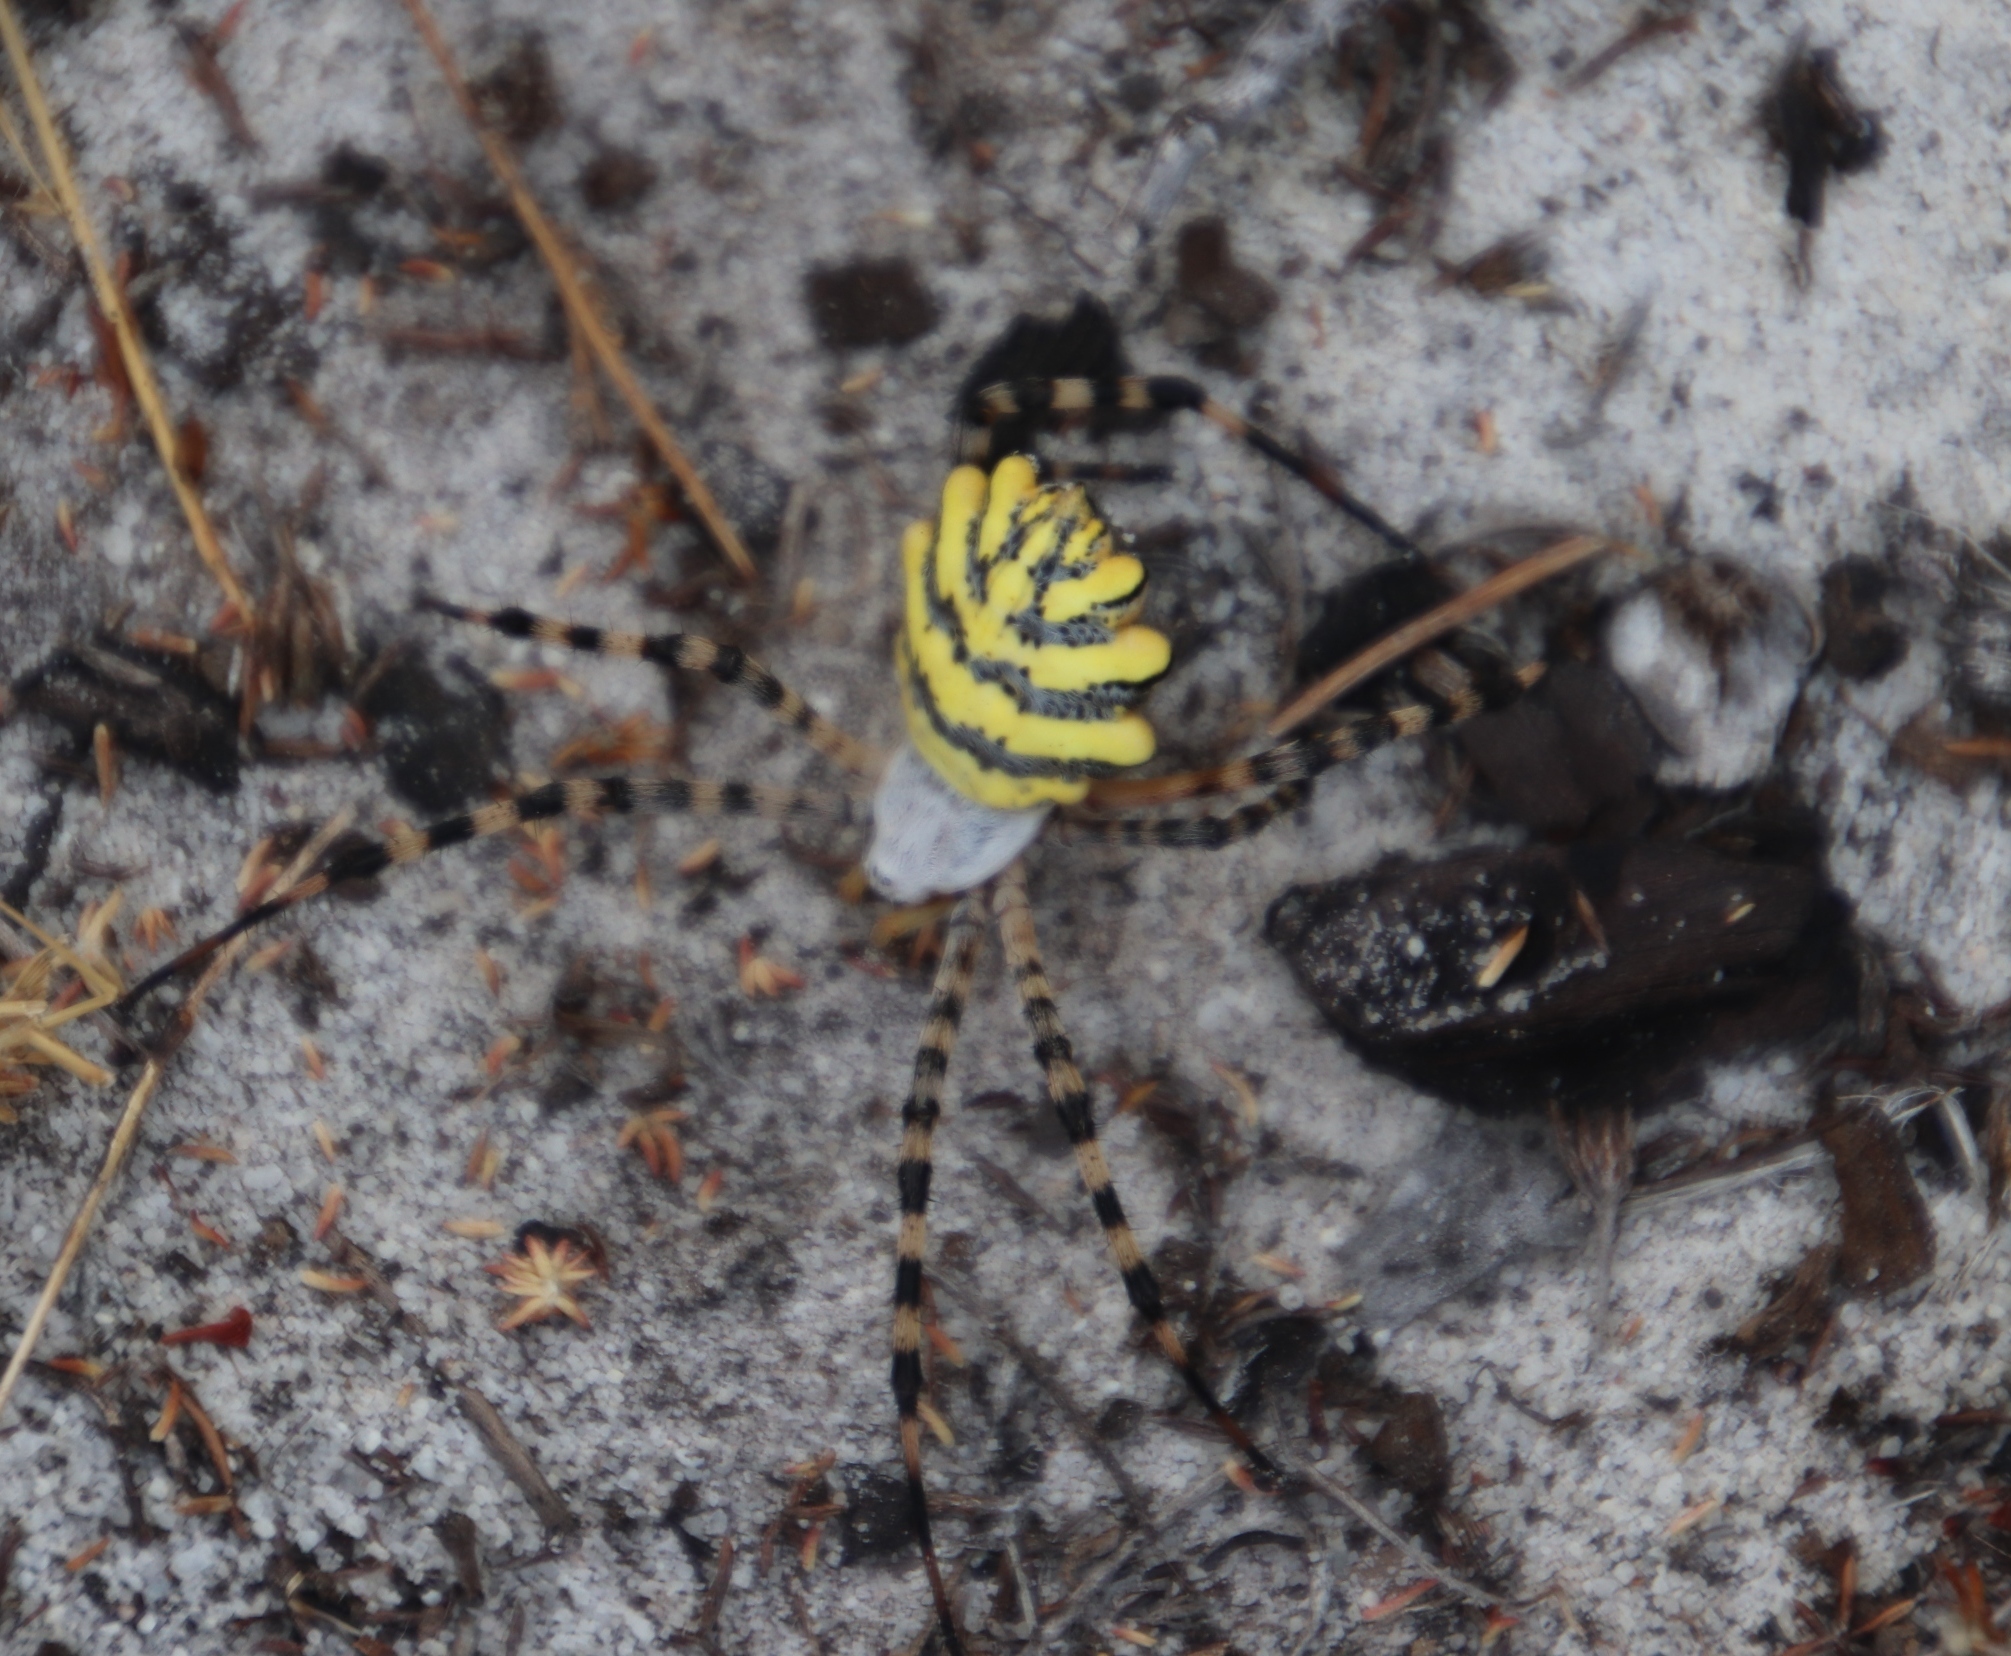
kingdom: Animalia
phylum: Arthropoda
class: Arachnida
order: Araneae
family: Araneidae
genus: Argiope
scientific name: Argiope australis
